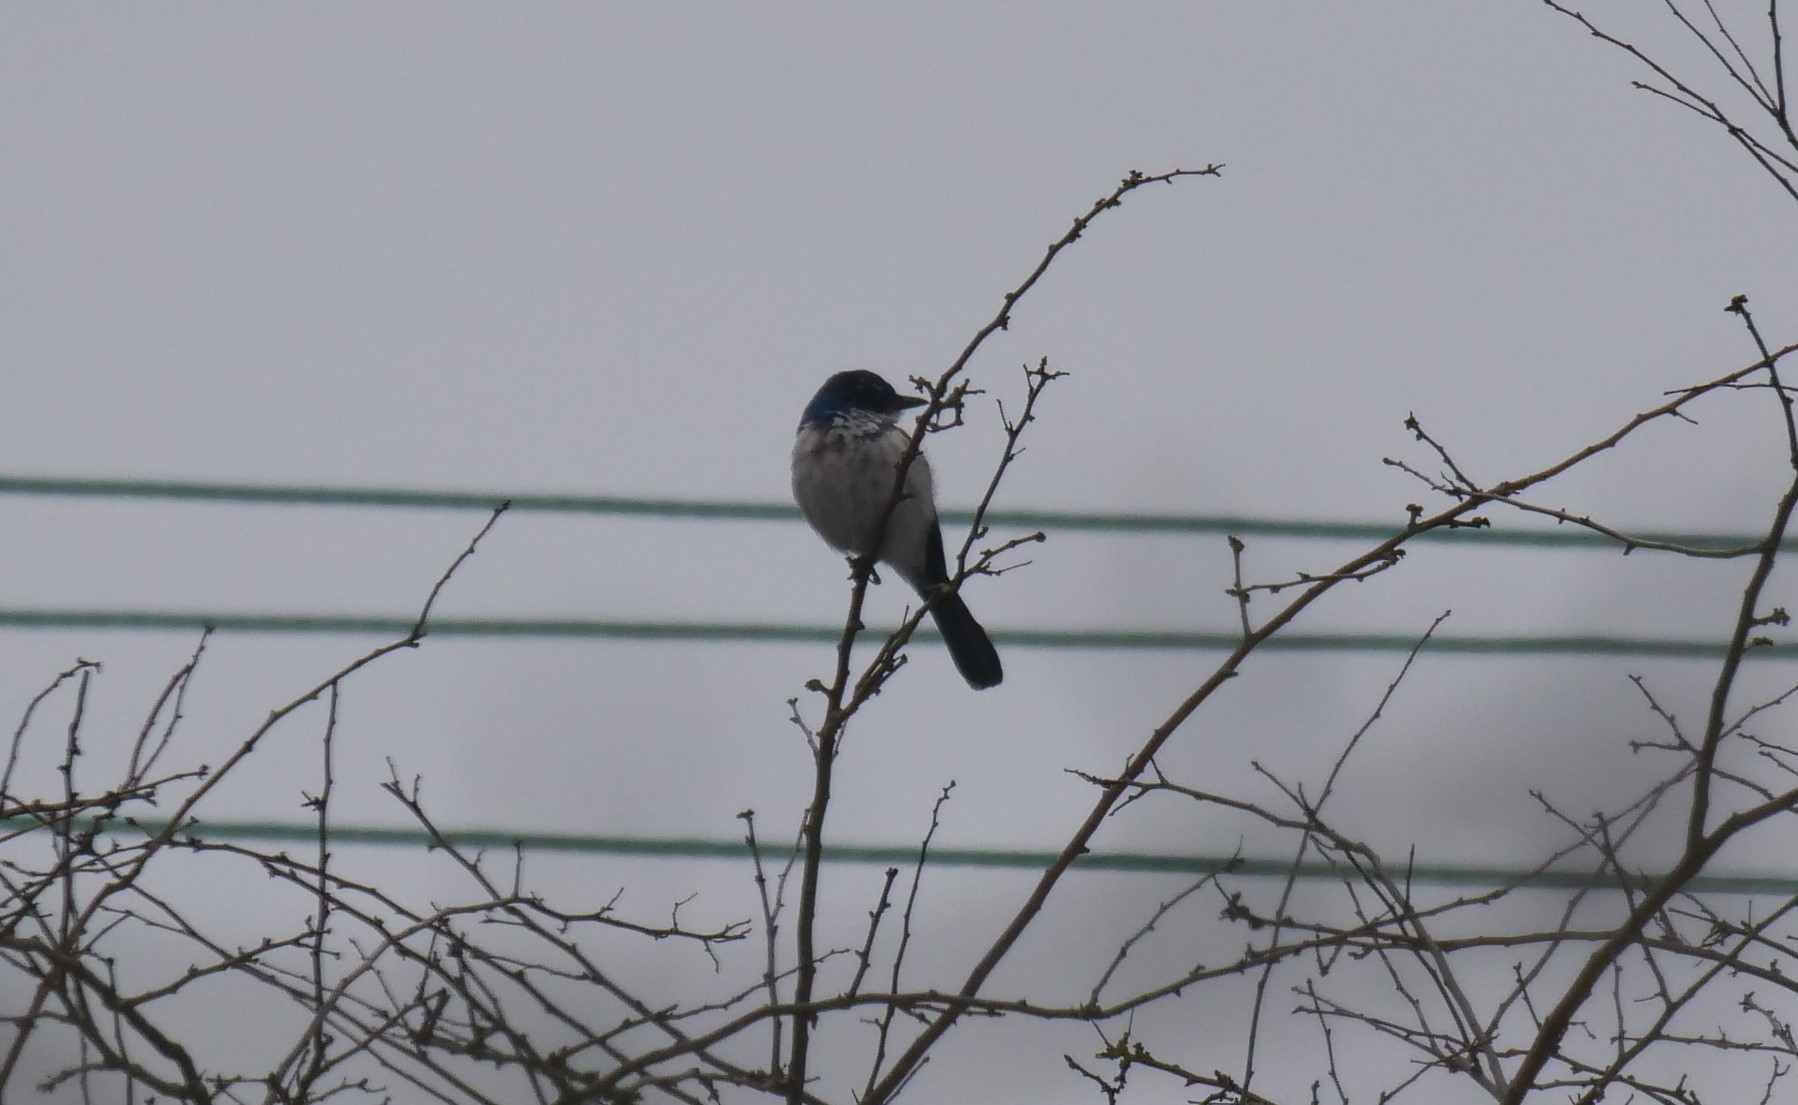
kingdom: Animalia
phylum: Chordata
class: Aves
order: Passeriformes
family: Corvidae
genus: Aphelocoma
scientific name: Aphelocoma californica
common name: California scrub-jay
